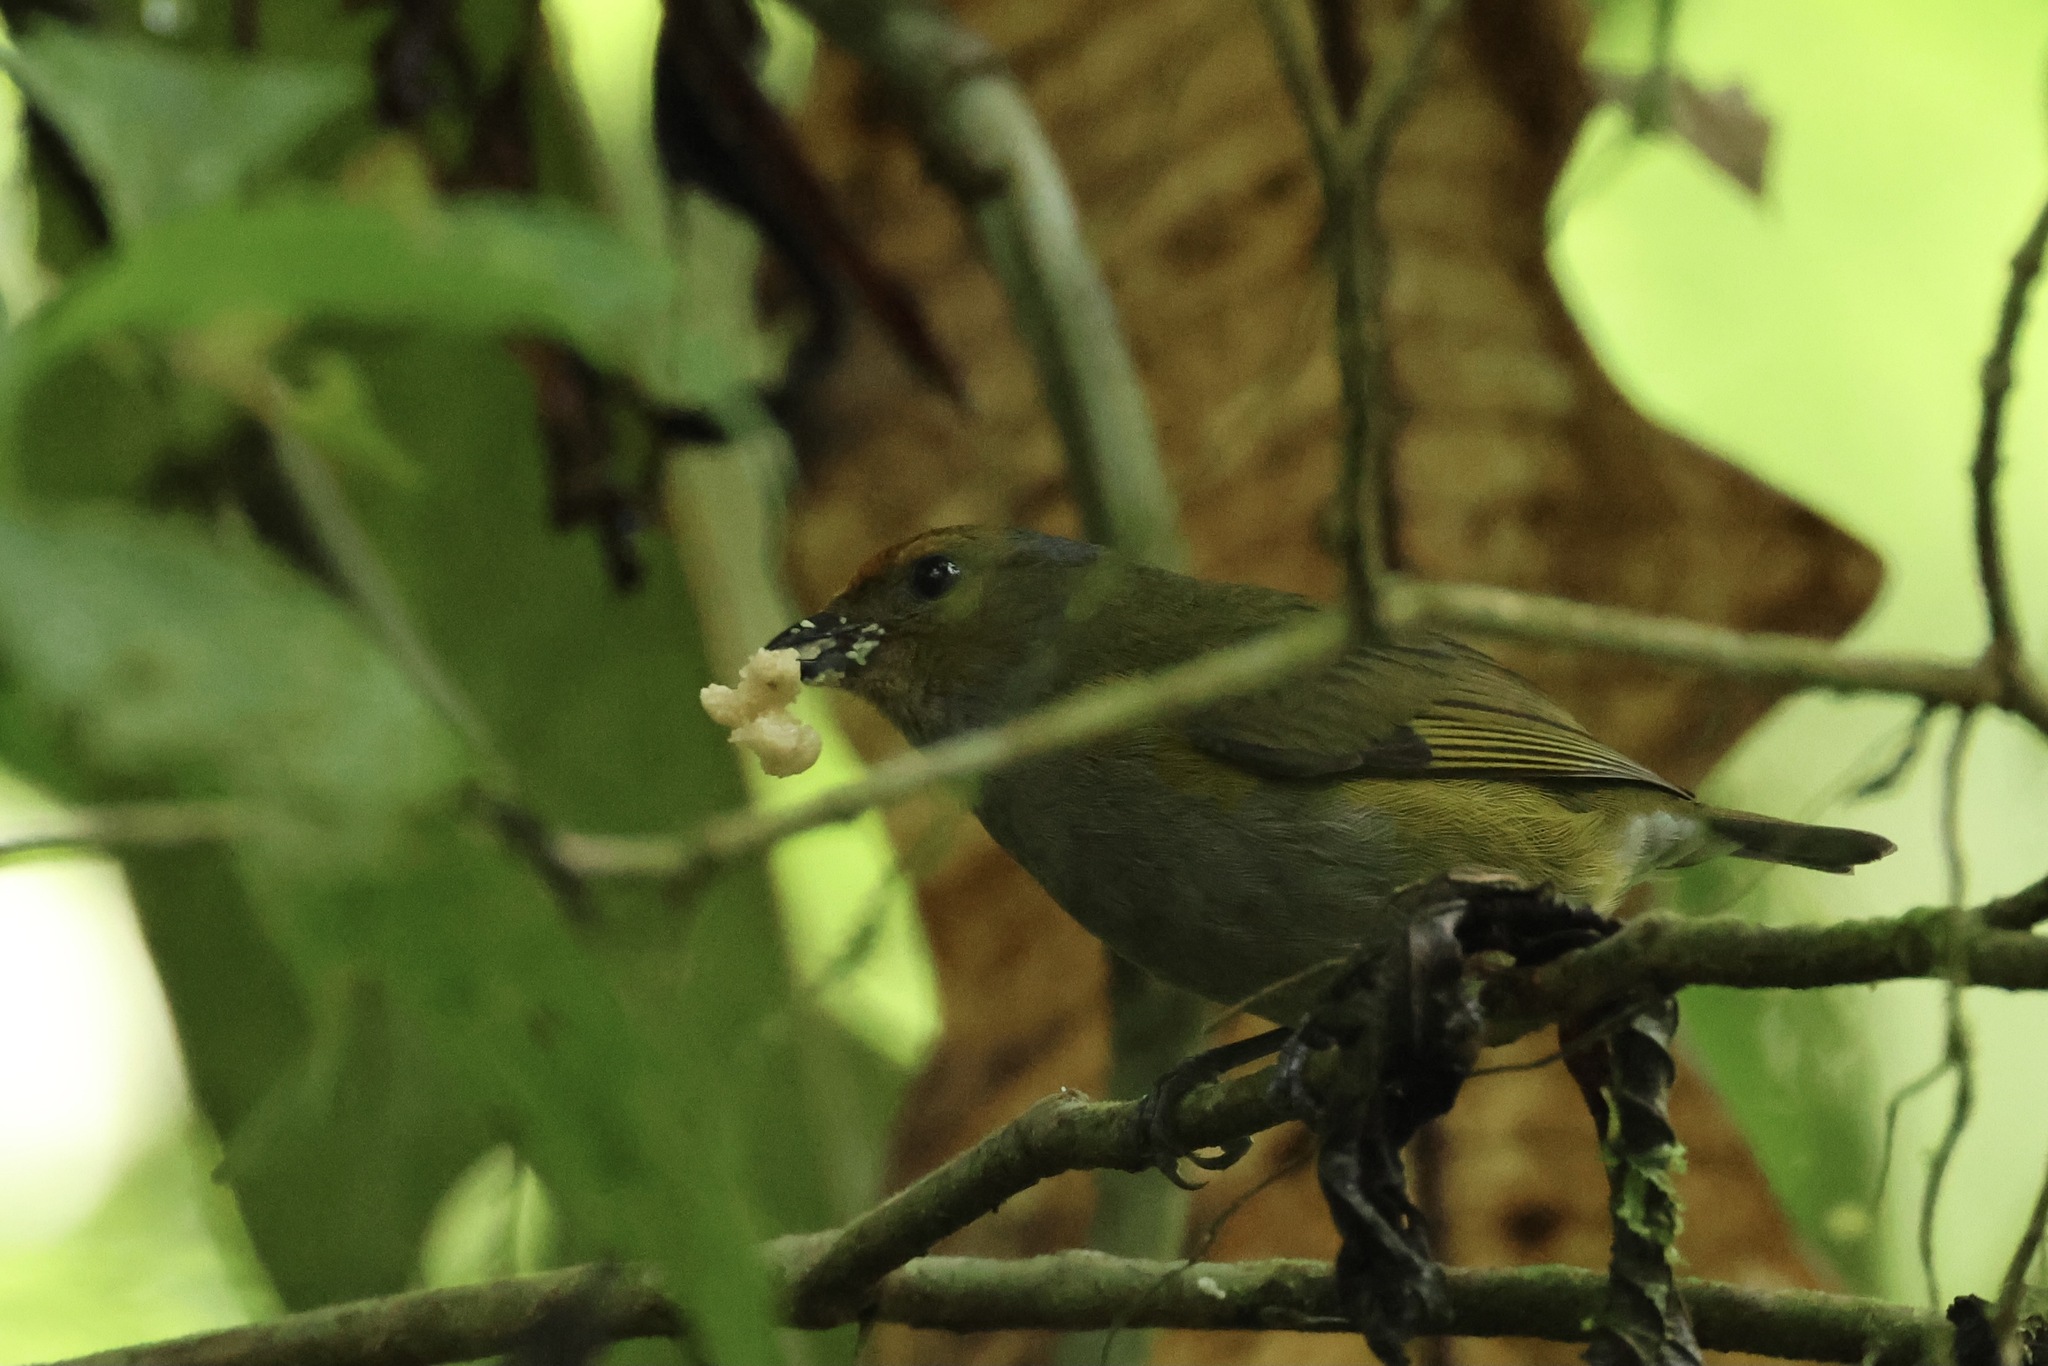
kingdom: Animalia
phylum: Chordata
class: Aves
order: Passeriformes
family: Fringillidae
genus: Euphonia
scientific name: Euphonia anneae
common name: Tawny-capped euphonia
